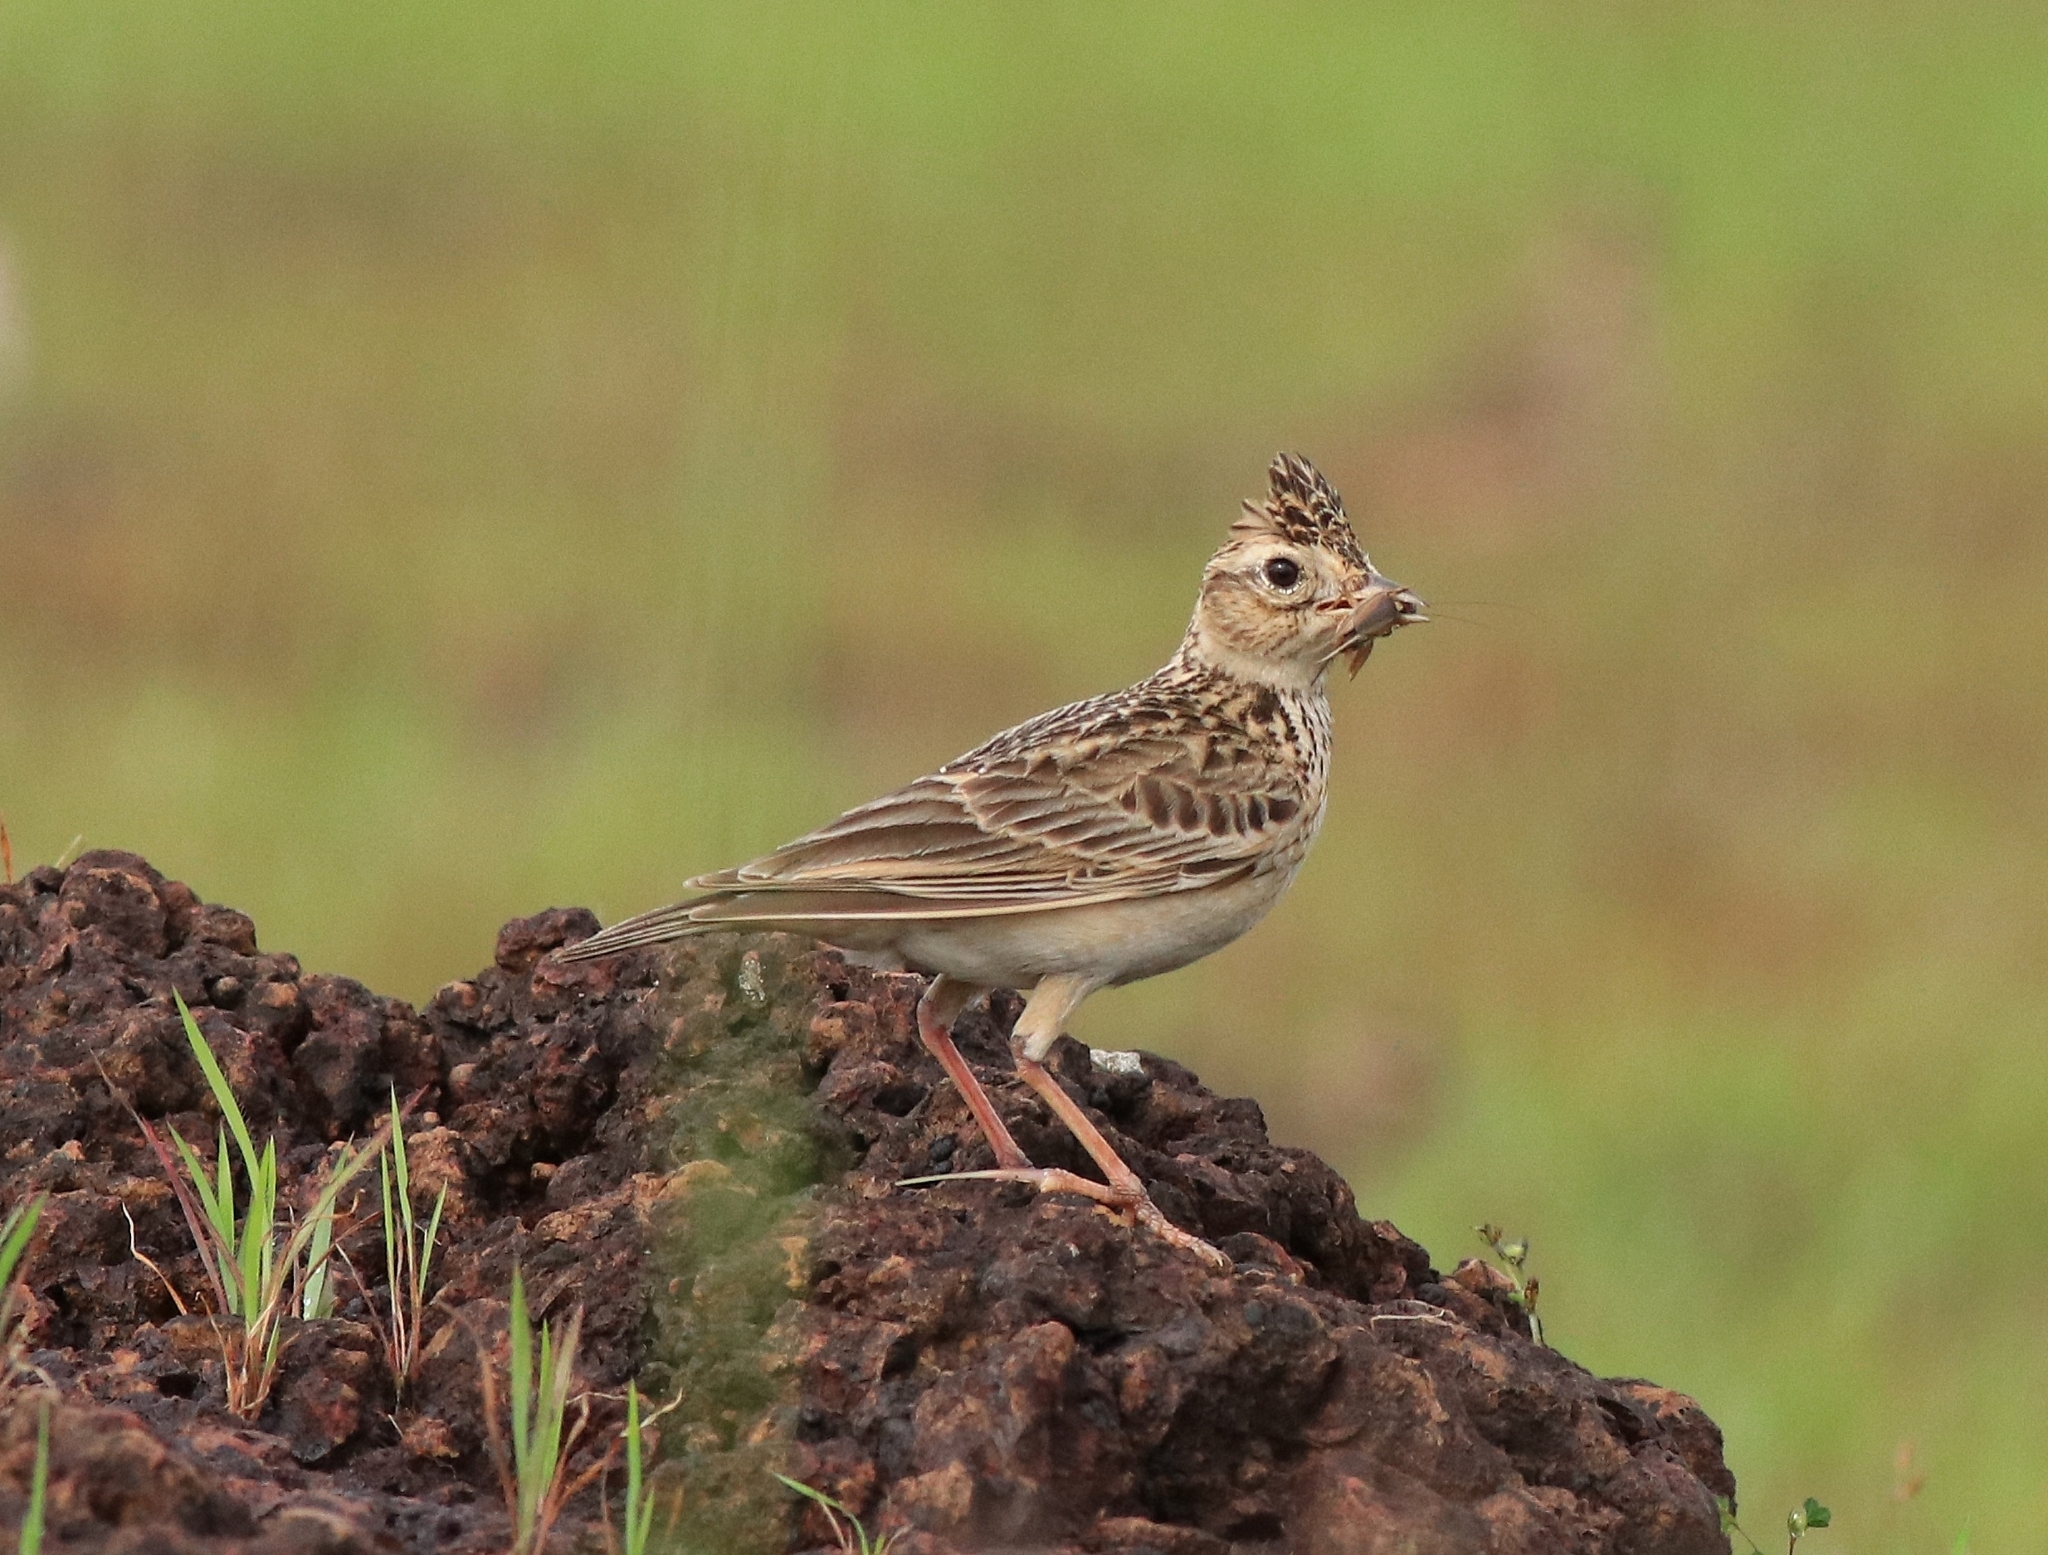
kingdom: Animalia
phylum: Chordata
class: Aves
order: Passeriformes
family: Alaudidae
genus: Alauda
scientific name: Alauda gulgula
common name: Oriental skylark
